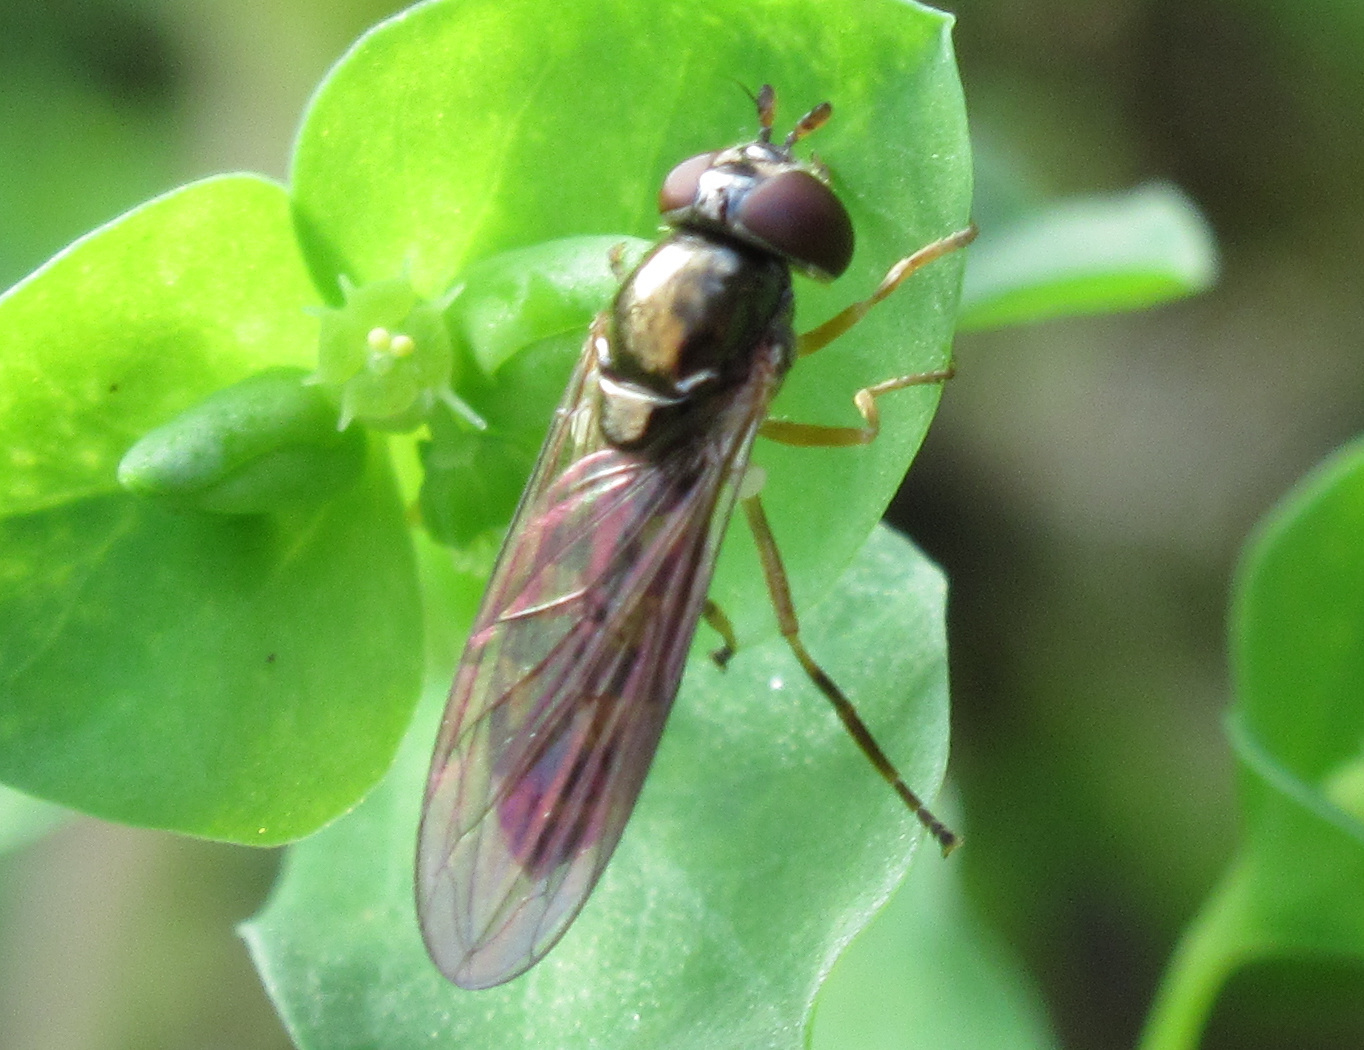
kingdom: Animalia
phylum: Arthropoda
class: Insecta
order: Diptera
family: Syrphidae
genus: Melanostoma
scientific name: Melanostoma fasciatum
